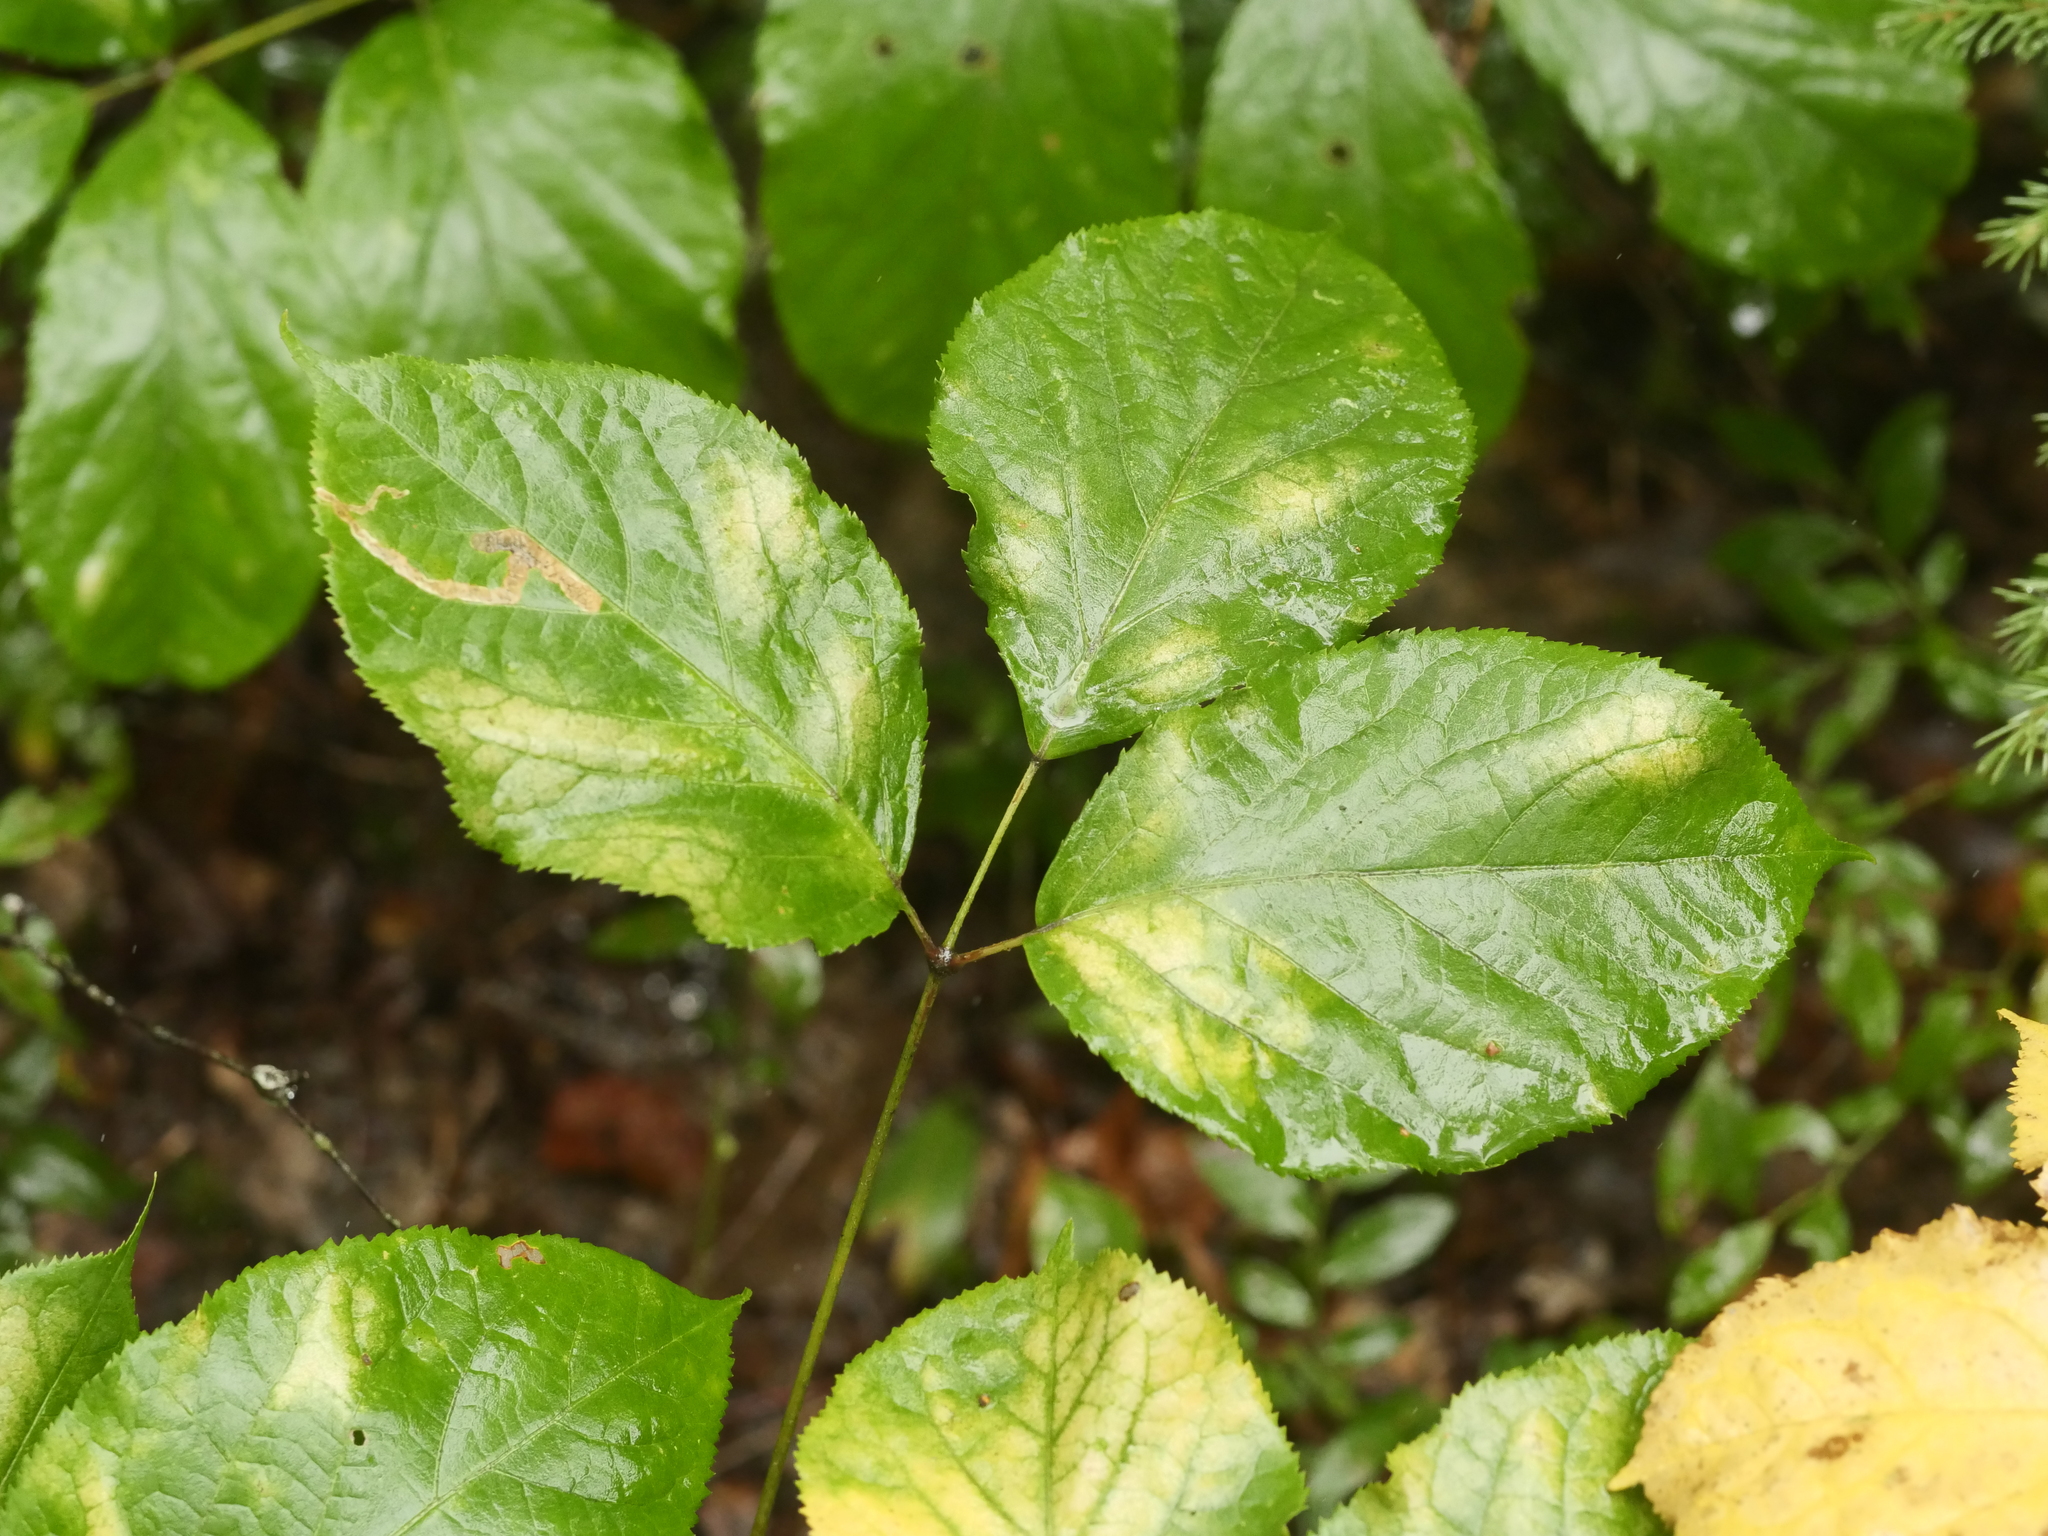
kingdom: Plantae
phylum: Tracheophyta
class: Magnoliopsida
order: Apiales
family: Araliaceae
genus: Aralia
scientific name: Aralia nudicaulis
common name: Wild sarsaparilla
